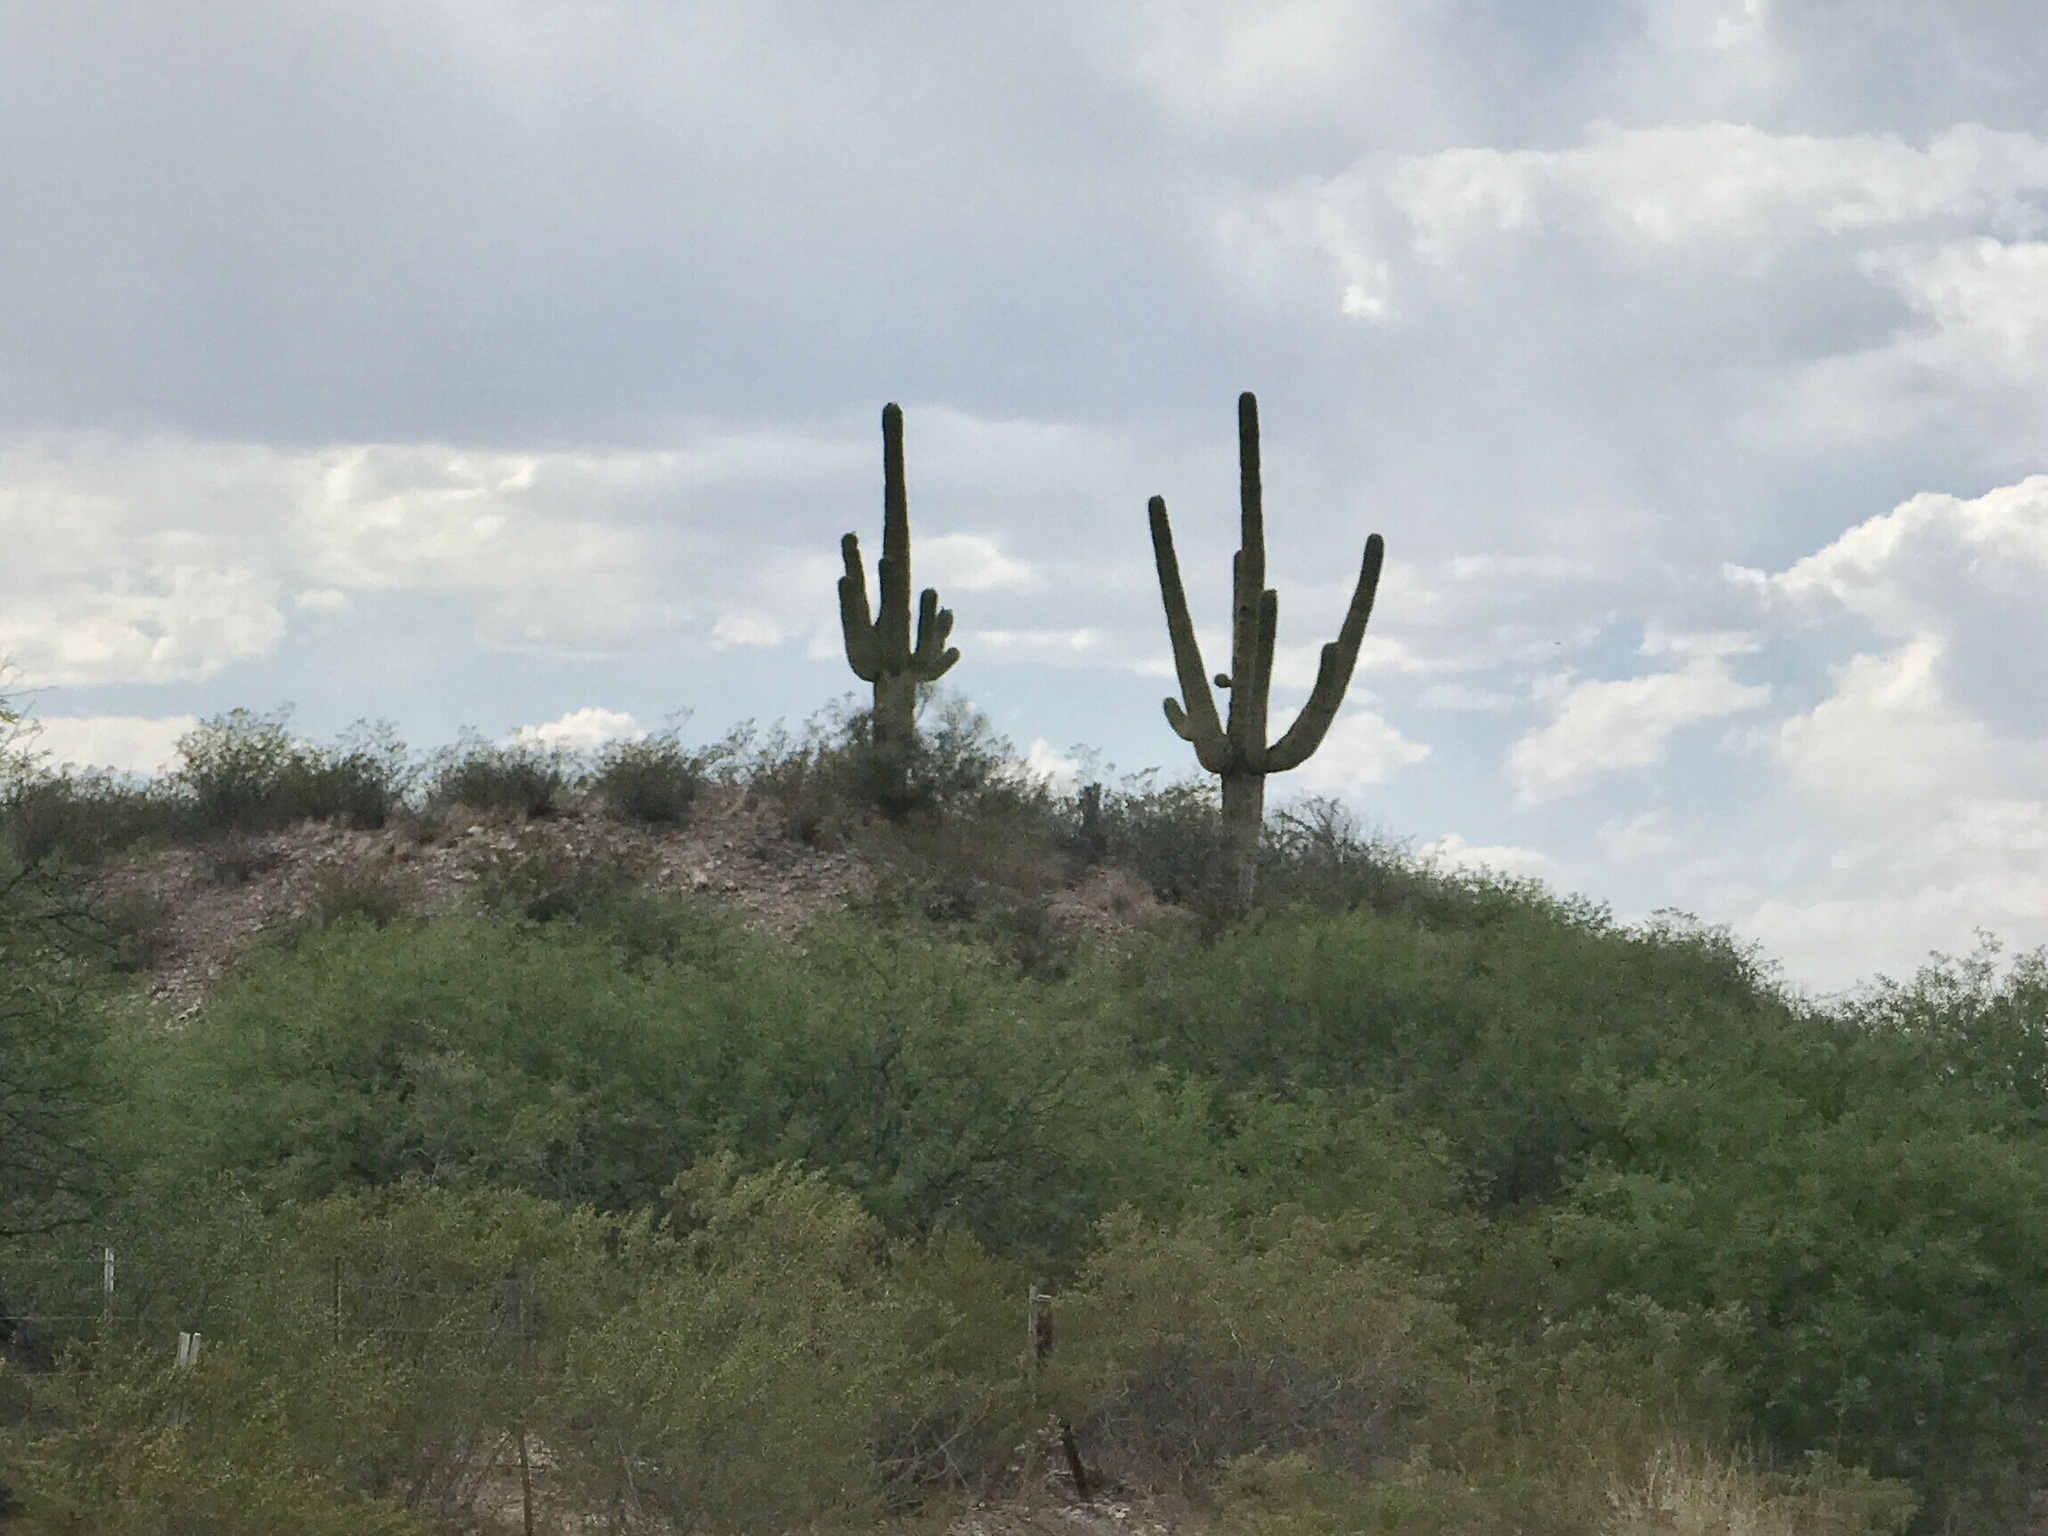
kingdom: Plantae
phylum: Tracheophyta
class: Liliopsida
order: Asparagales
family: Asparagaceae
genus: Yucca
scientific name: Yucca elata
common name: Palmella
